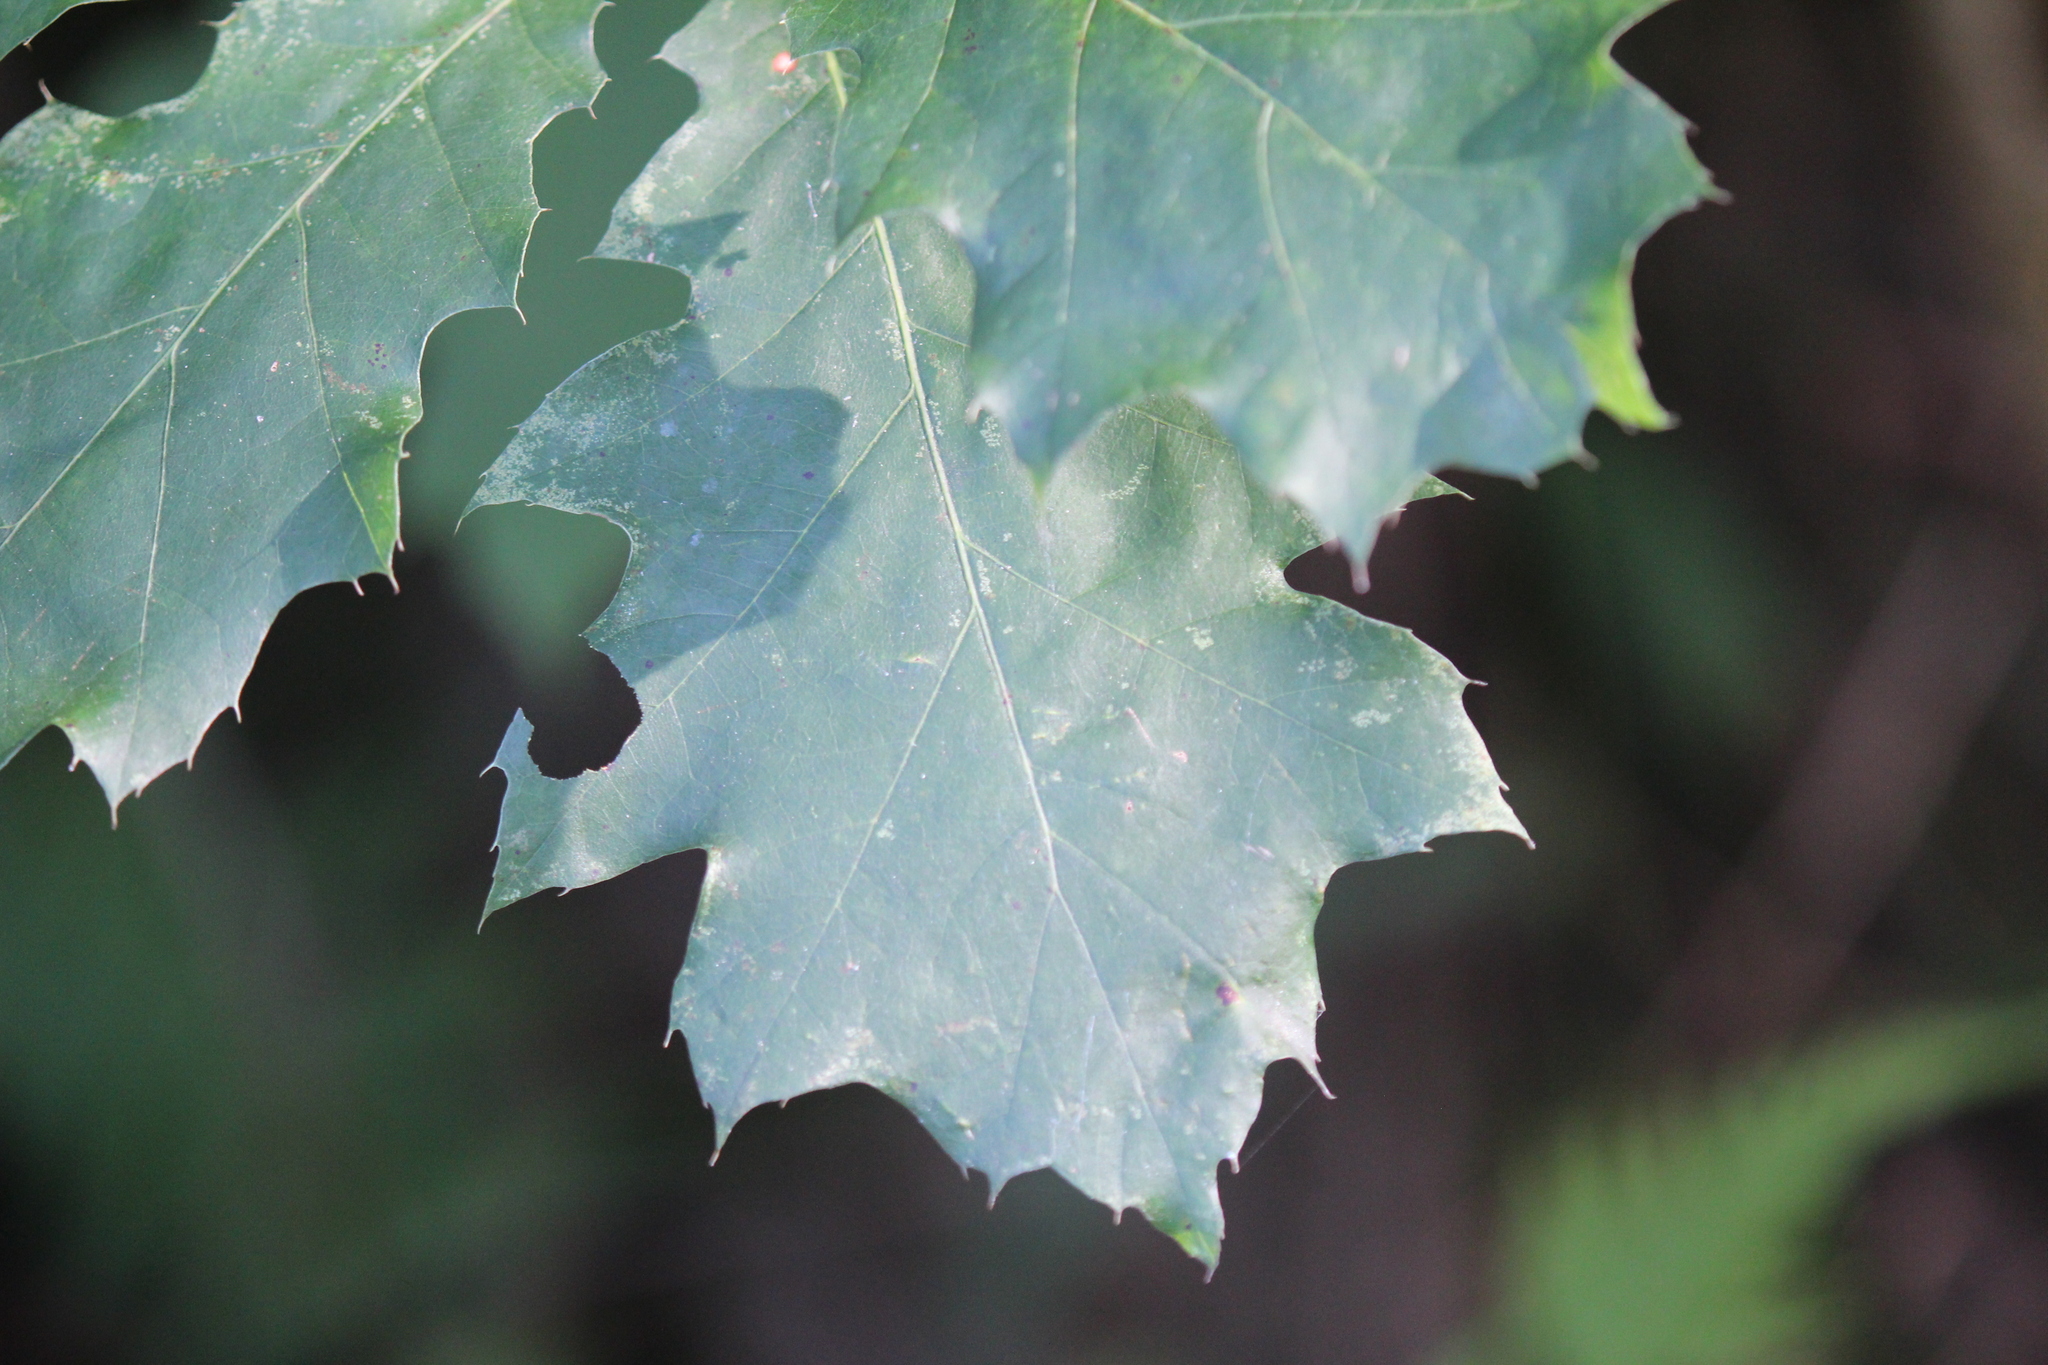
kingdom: Plantae
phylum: Tracheophyta
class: Magnoliopsida
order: Fagales
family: Fagaceae
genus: Quercus
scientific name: Quercus rubra
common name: Red oak
